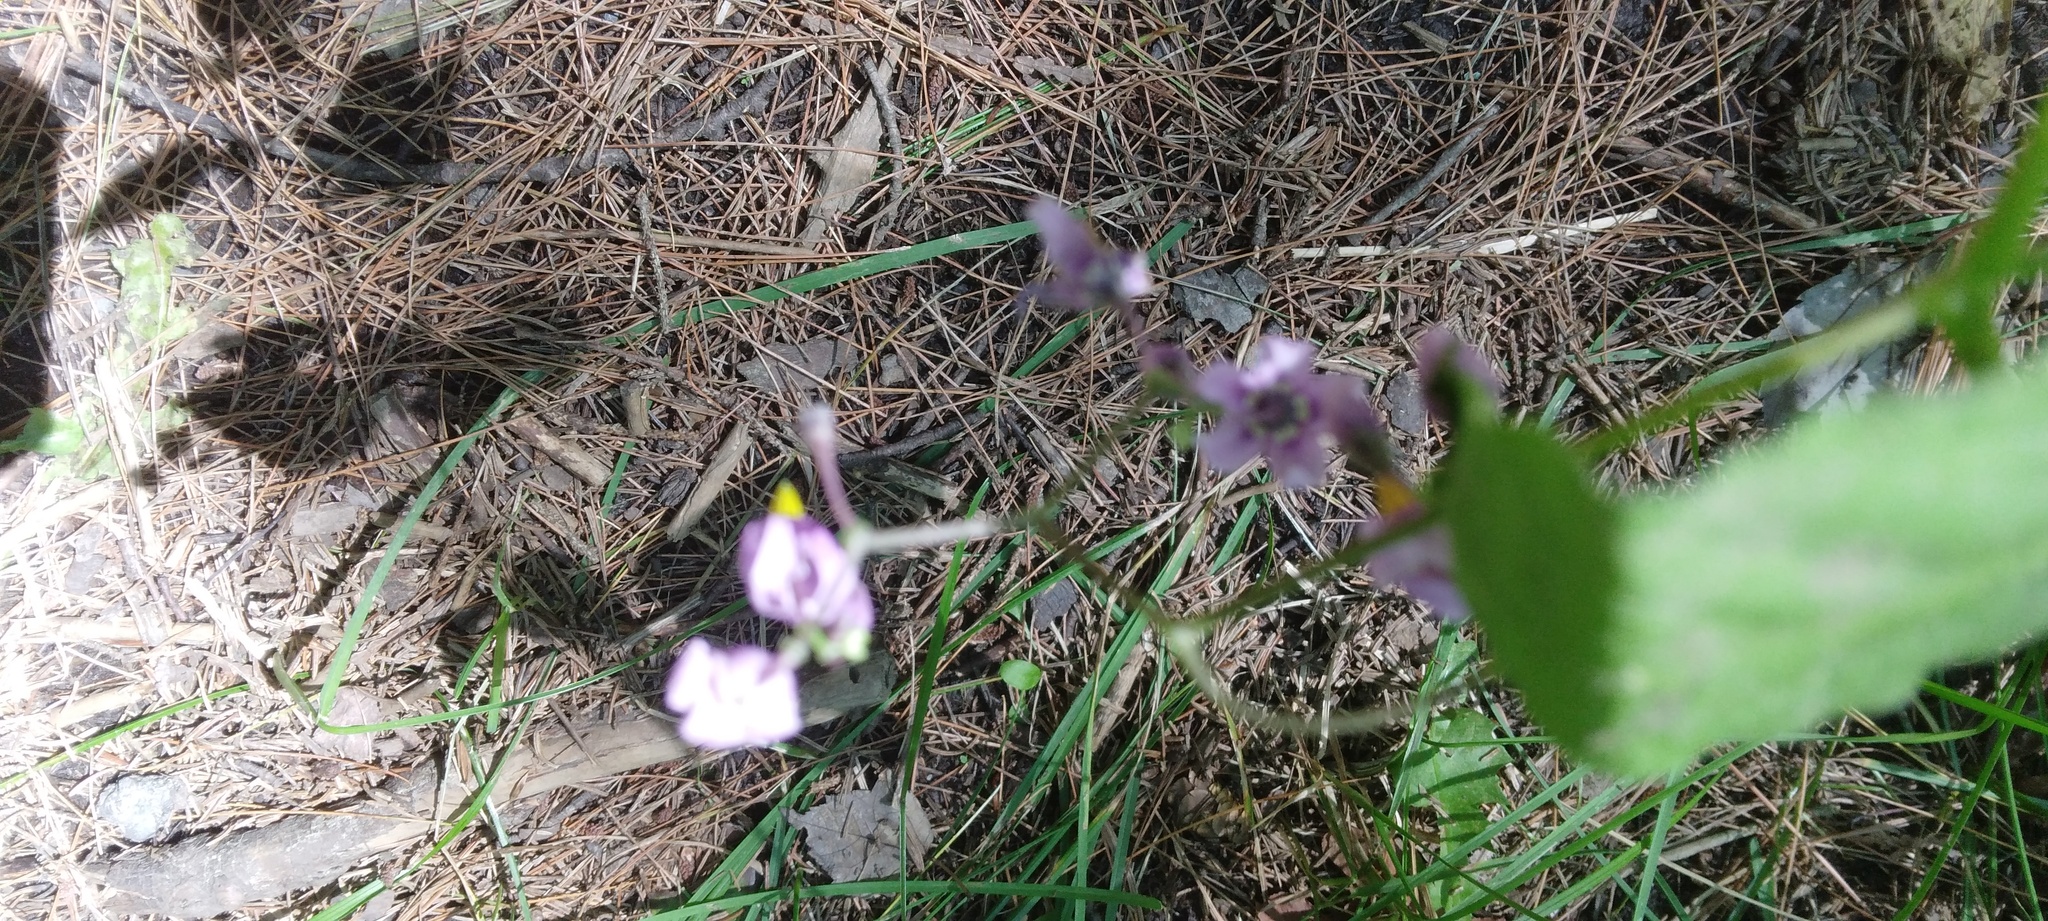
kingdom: Plantae
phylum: Tracheophyta
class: Magnoliopsida
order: Solanales
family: Solanaceae
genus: Solanum
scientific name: Solanum dulcamara
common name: Climbing nightshade
